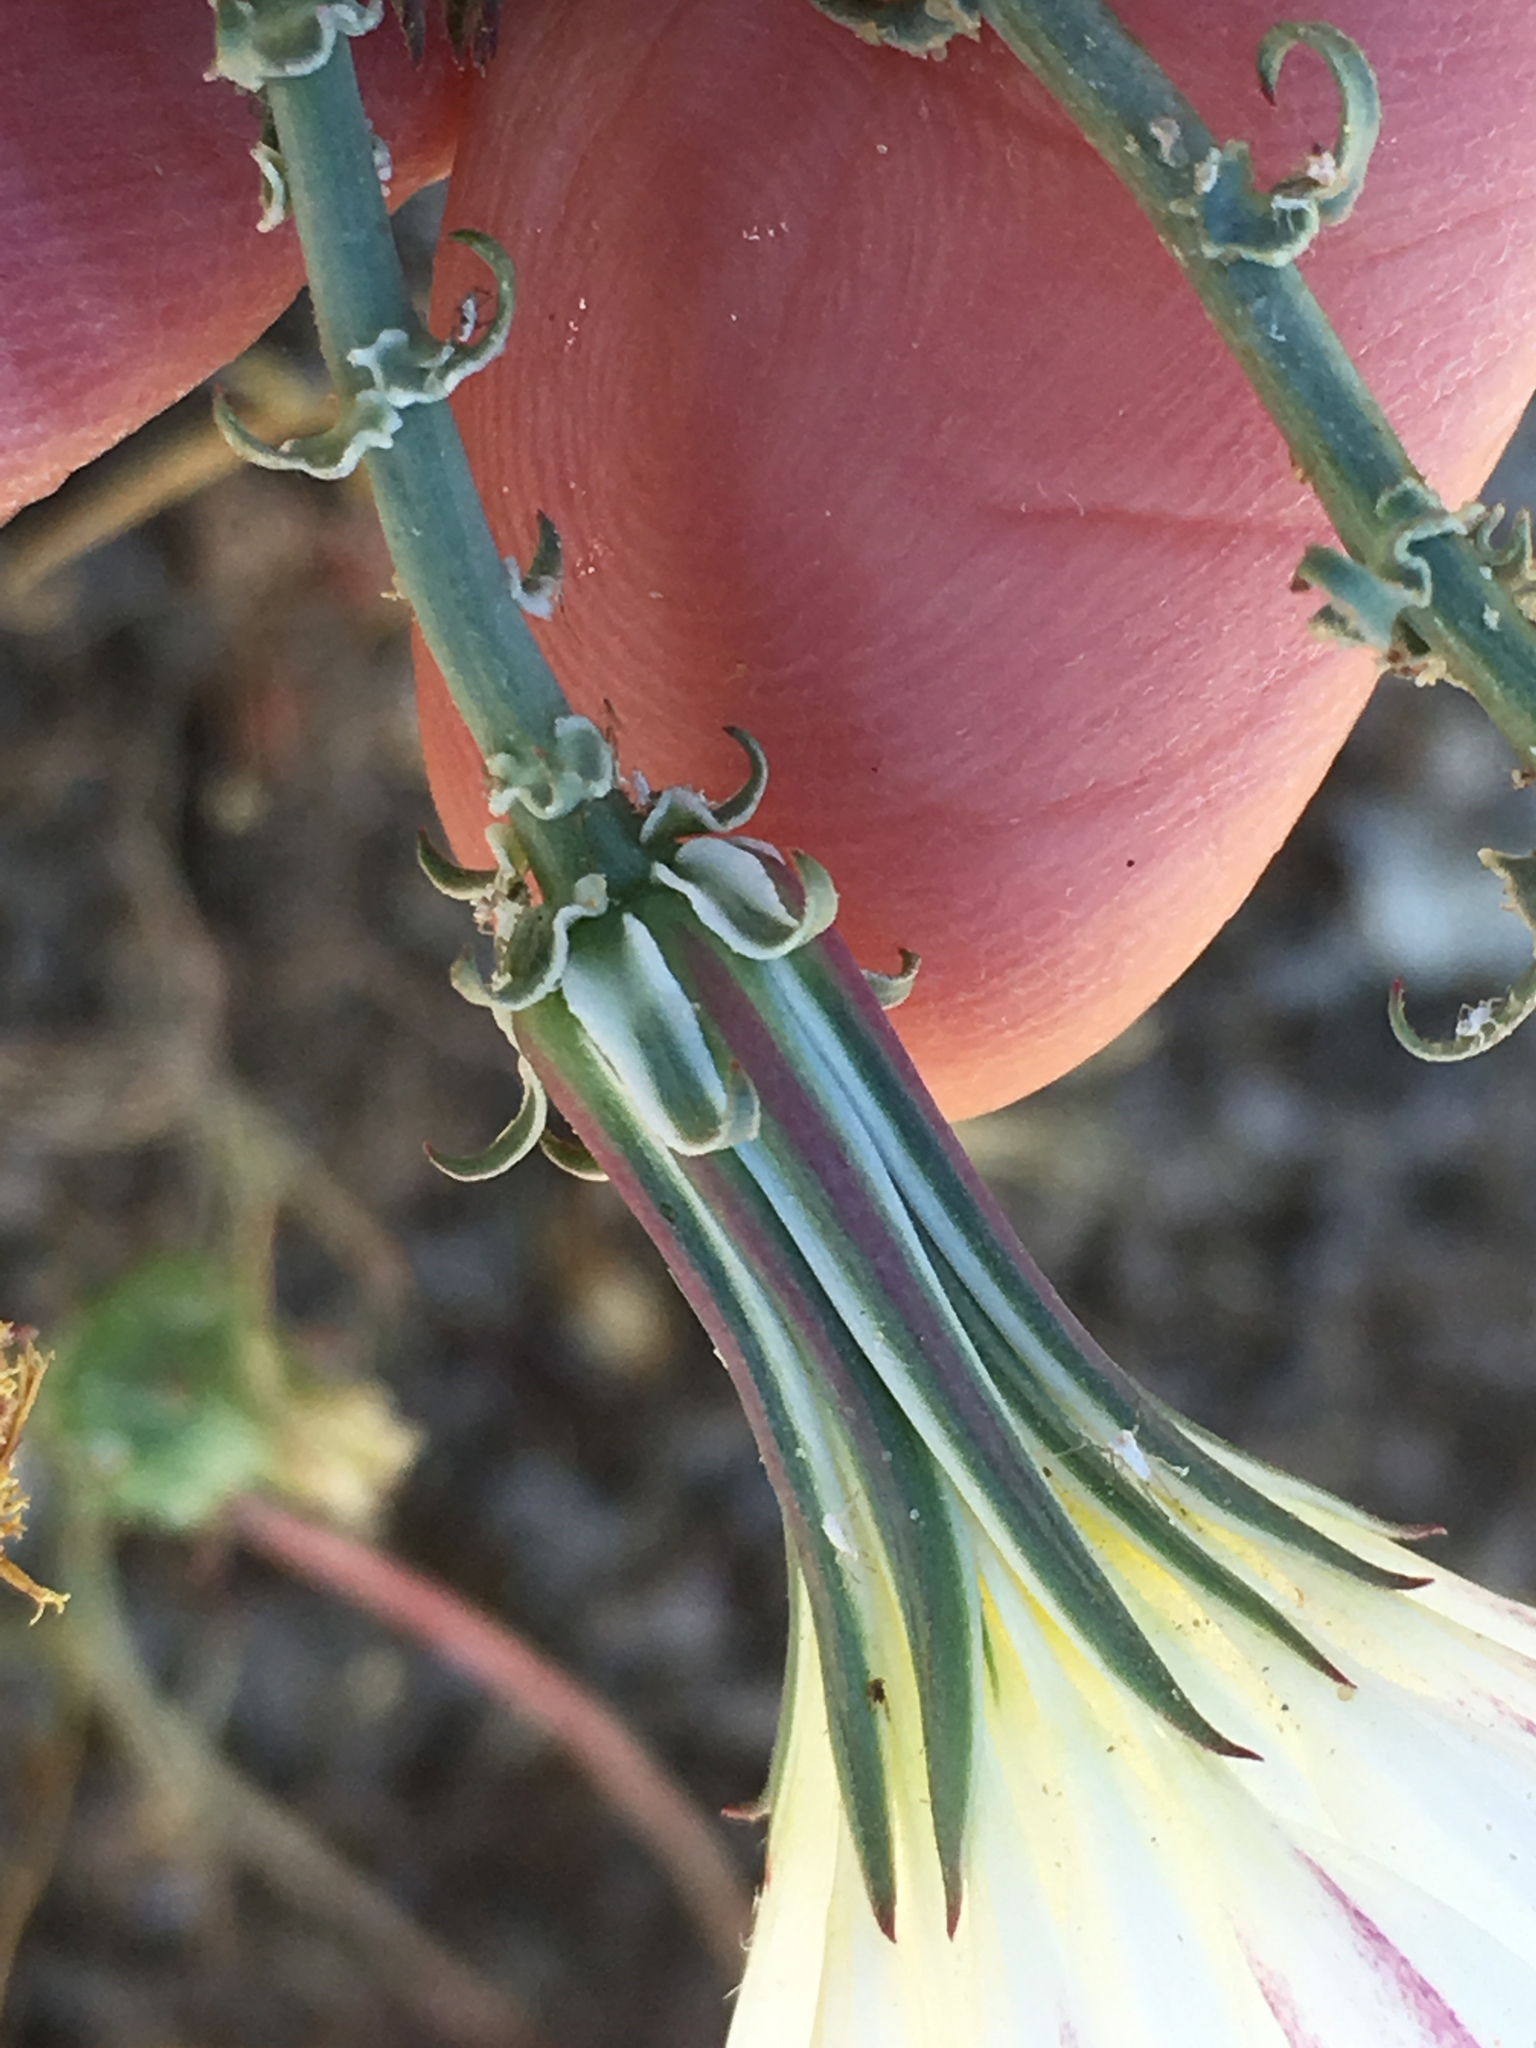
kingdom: Plantae
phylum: Tracheophyta
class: Magnoliopsida
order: Asterales
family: Asteraceae
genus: Rafinesquia
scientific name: Rafinesquia neomexicana
